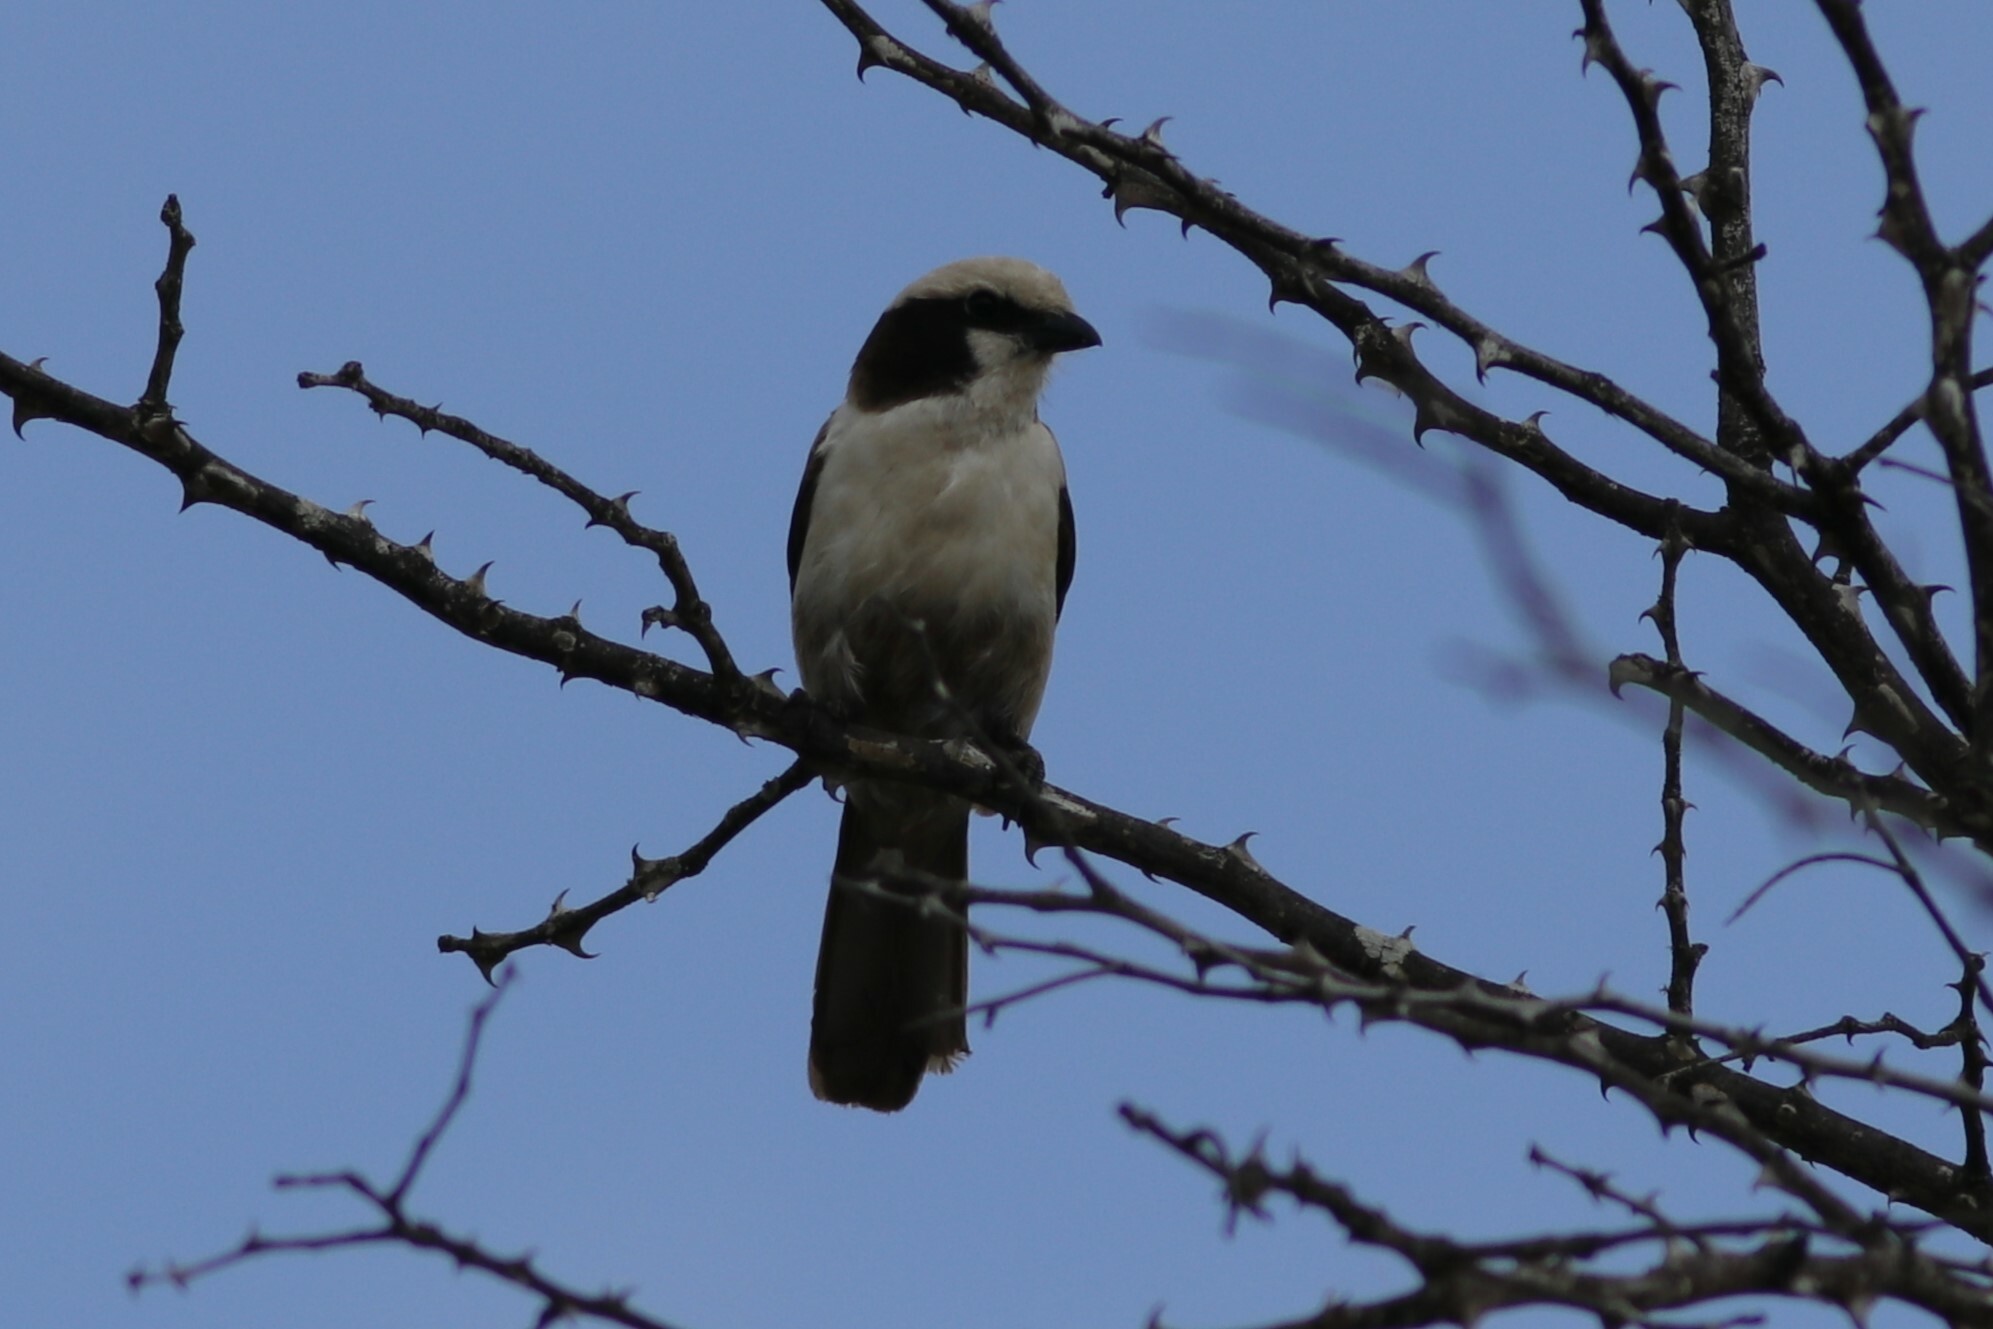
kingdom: Animalia
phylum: Chordata
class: Aves
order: Passeriformes
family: Laniidae
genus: Eurocephalus
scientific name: Eurocephalus anguitimens
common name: Southern white-crowned shrike
